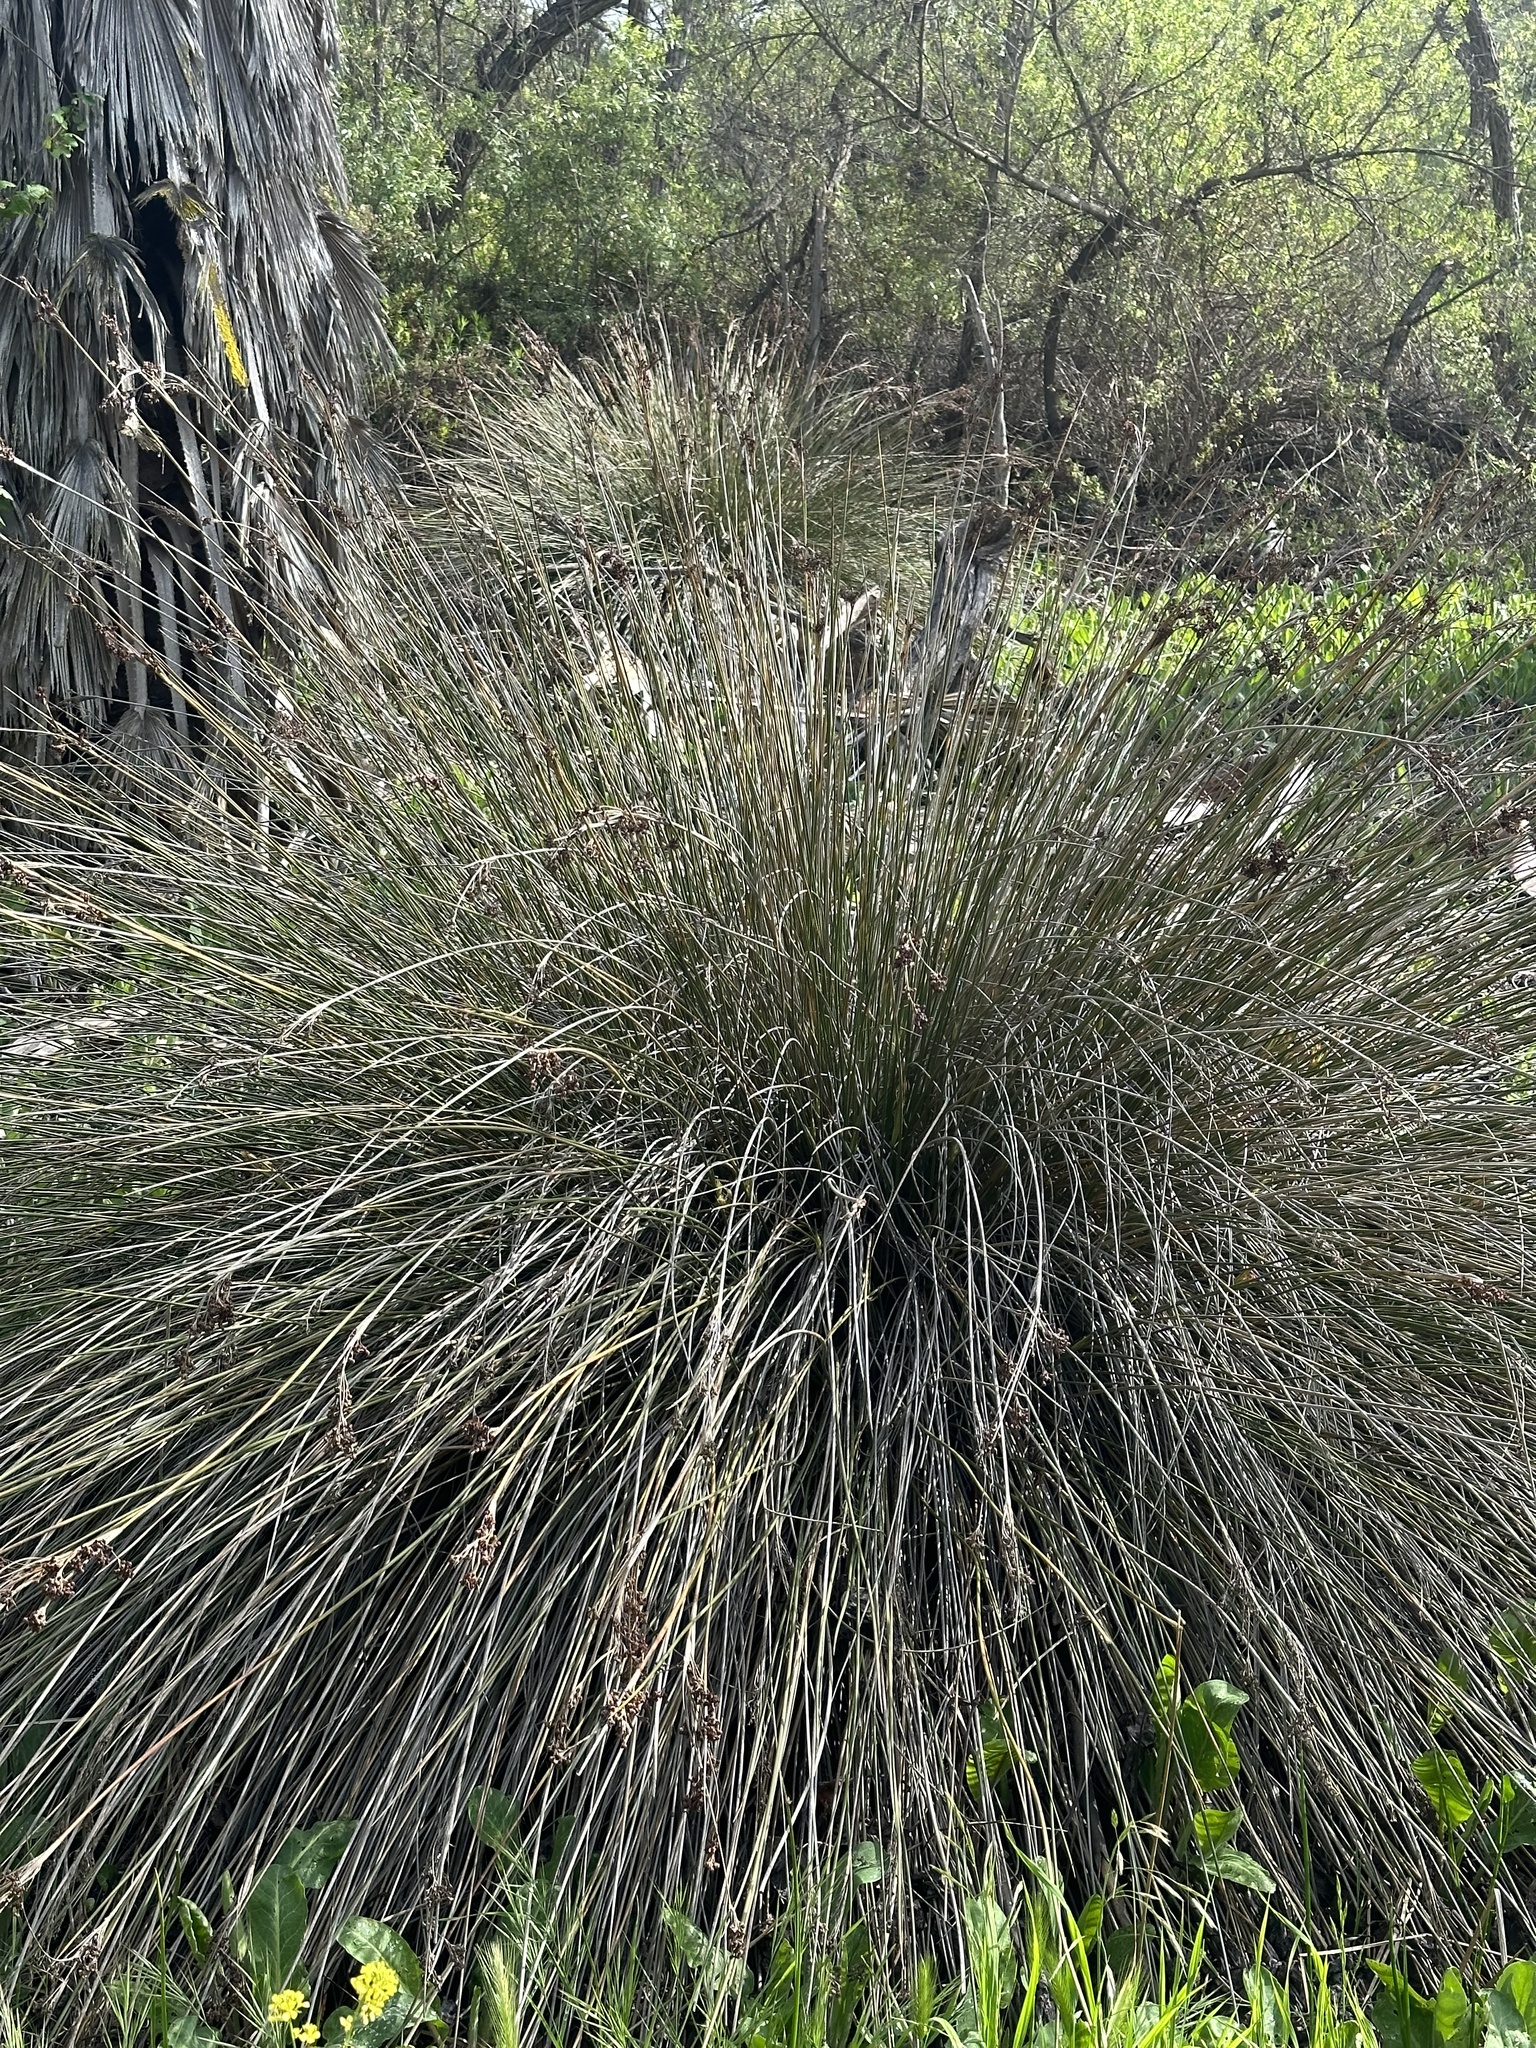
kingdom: Plantae
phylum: Tracheophyta
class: Liliopsida
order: Poales
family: Juncaceae
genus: Juncus
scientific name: Juncus acutus
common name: Sharp rush
